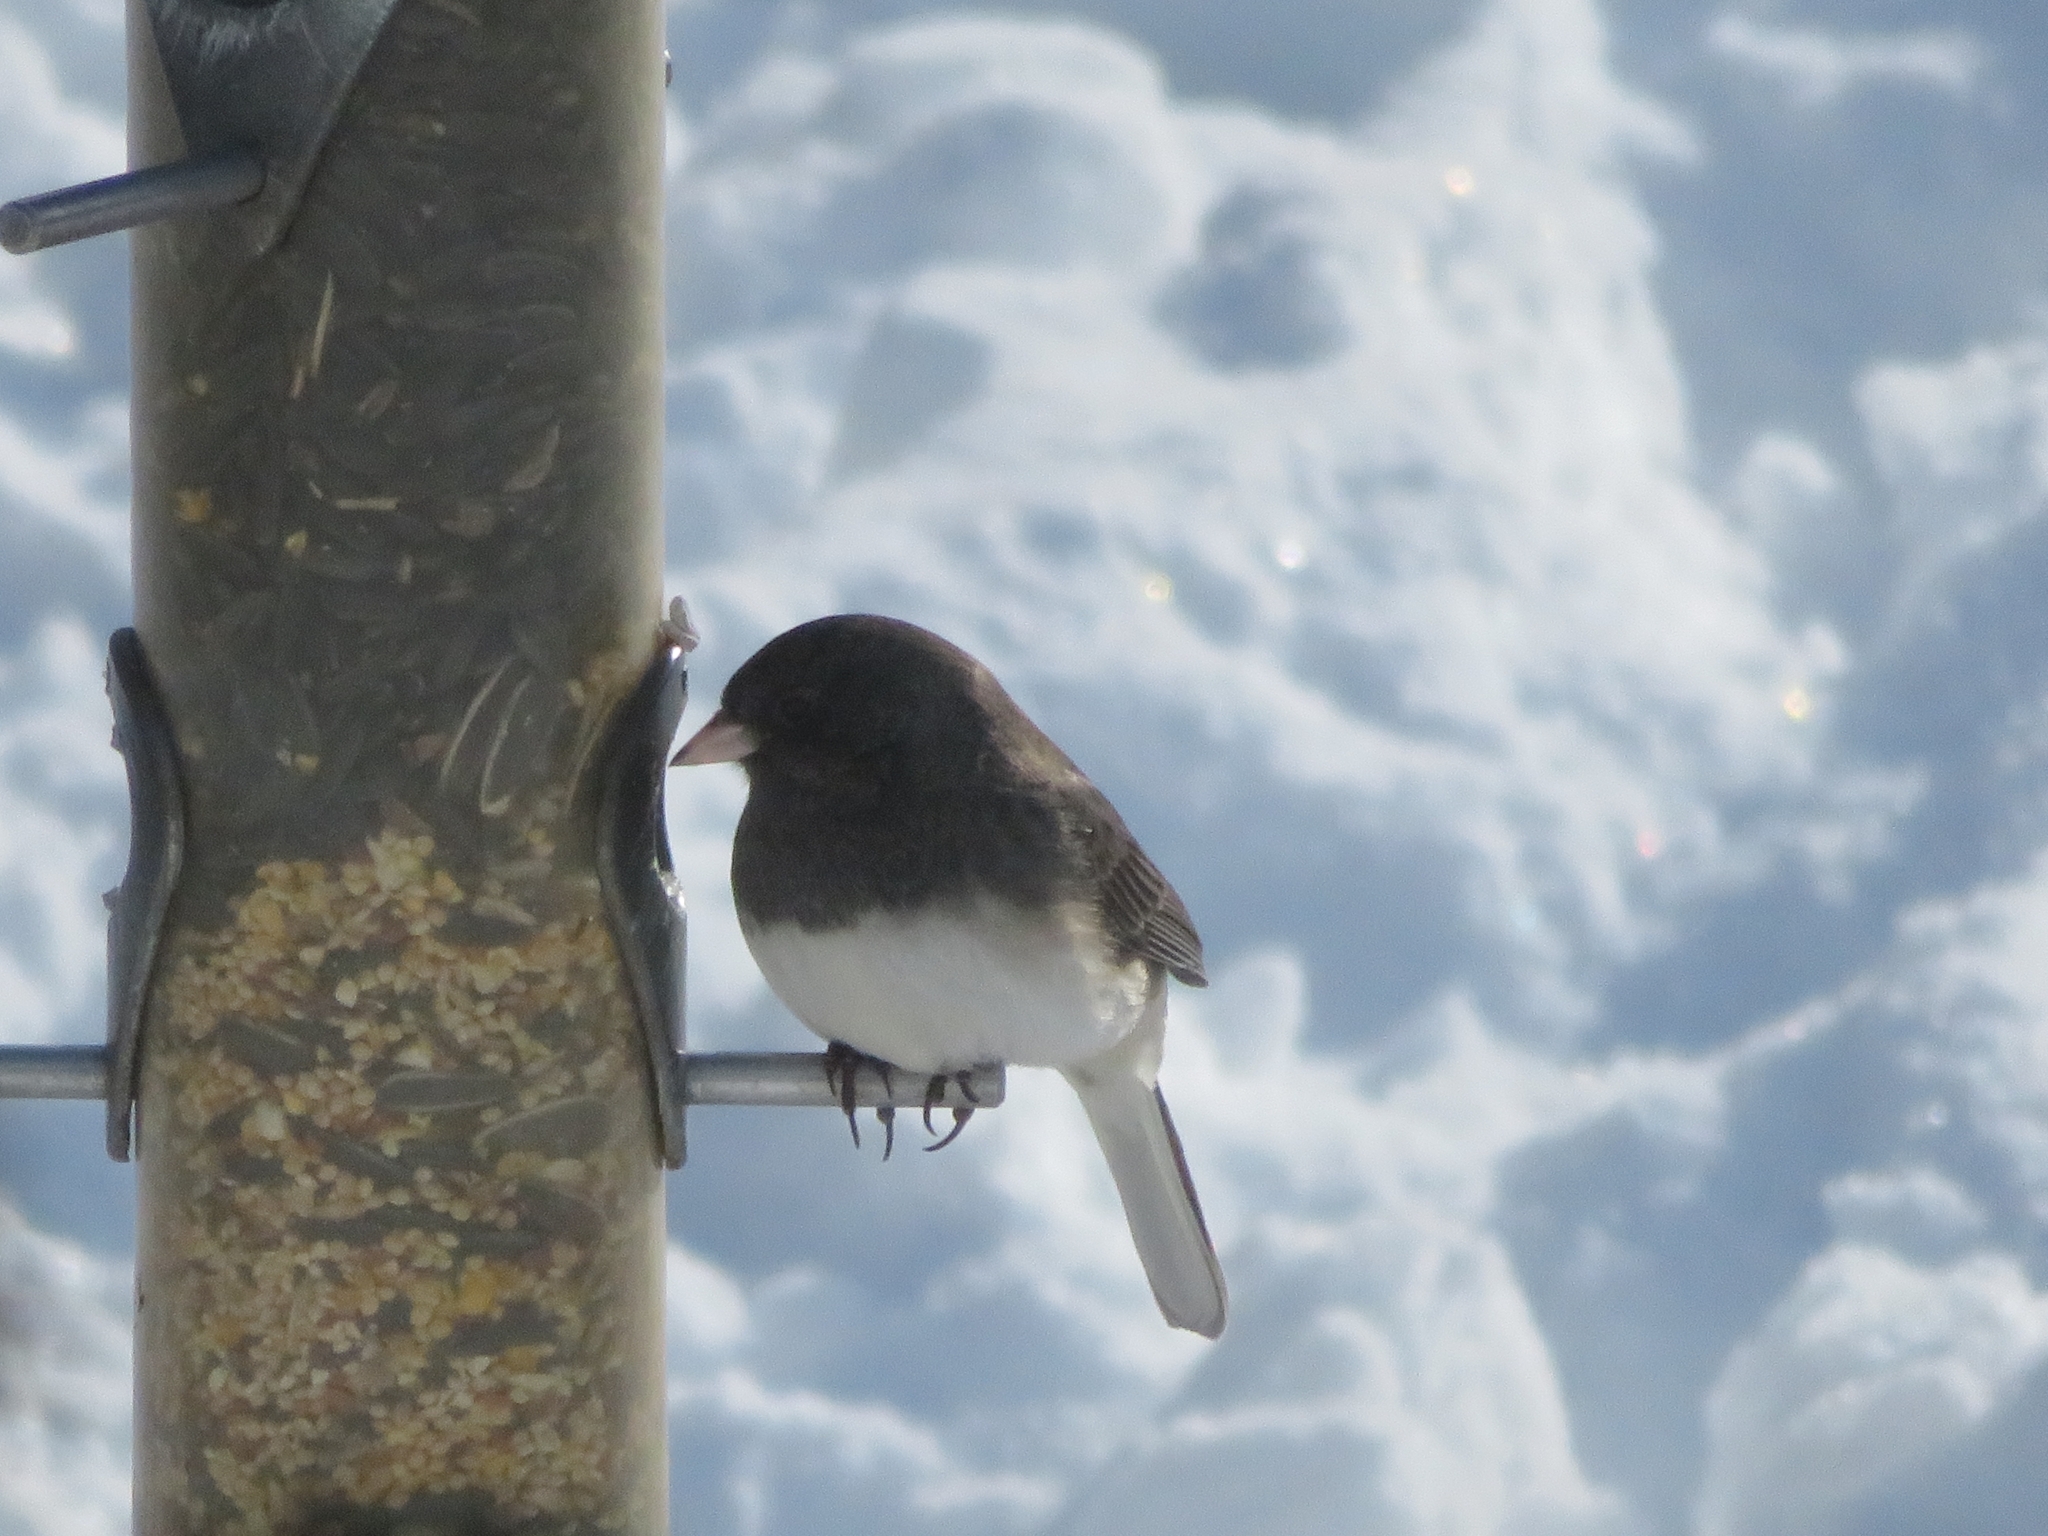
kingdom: Animalia
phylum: Chordata
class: Aves
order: Passeriformes
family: Passerellidae
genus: Junco
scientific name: Junco hyemalis
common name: Dark-eyed junco
